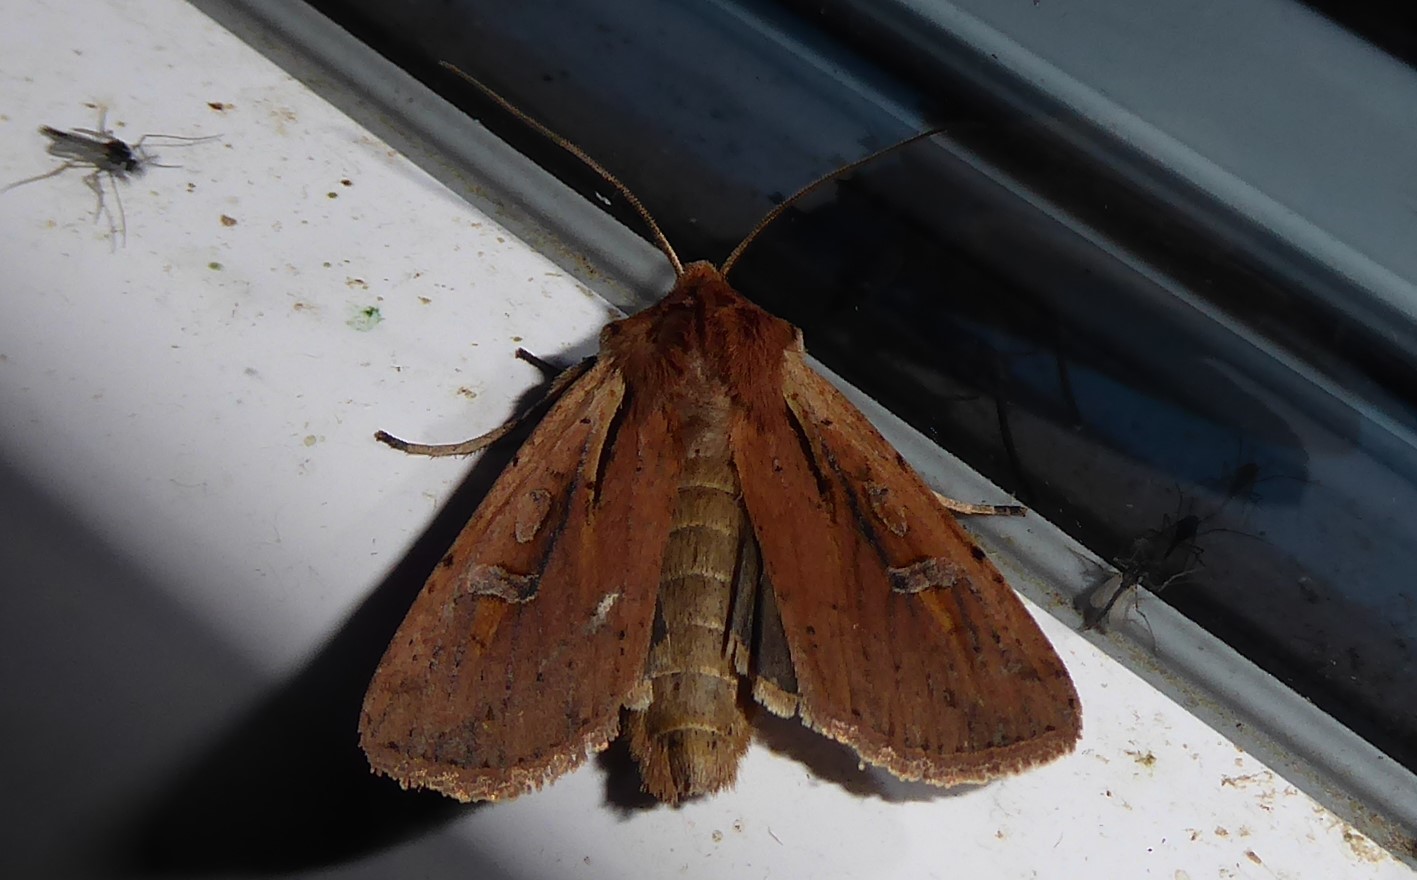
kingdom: Animalia
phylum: Arthropoda
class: Insecta
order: Lepidoptera
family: Noctuidae
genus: Ichneutica
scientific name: Ichneutica atristriga
